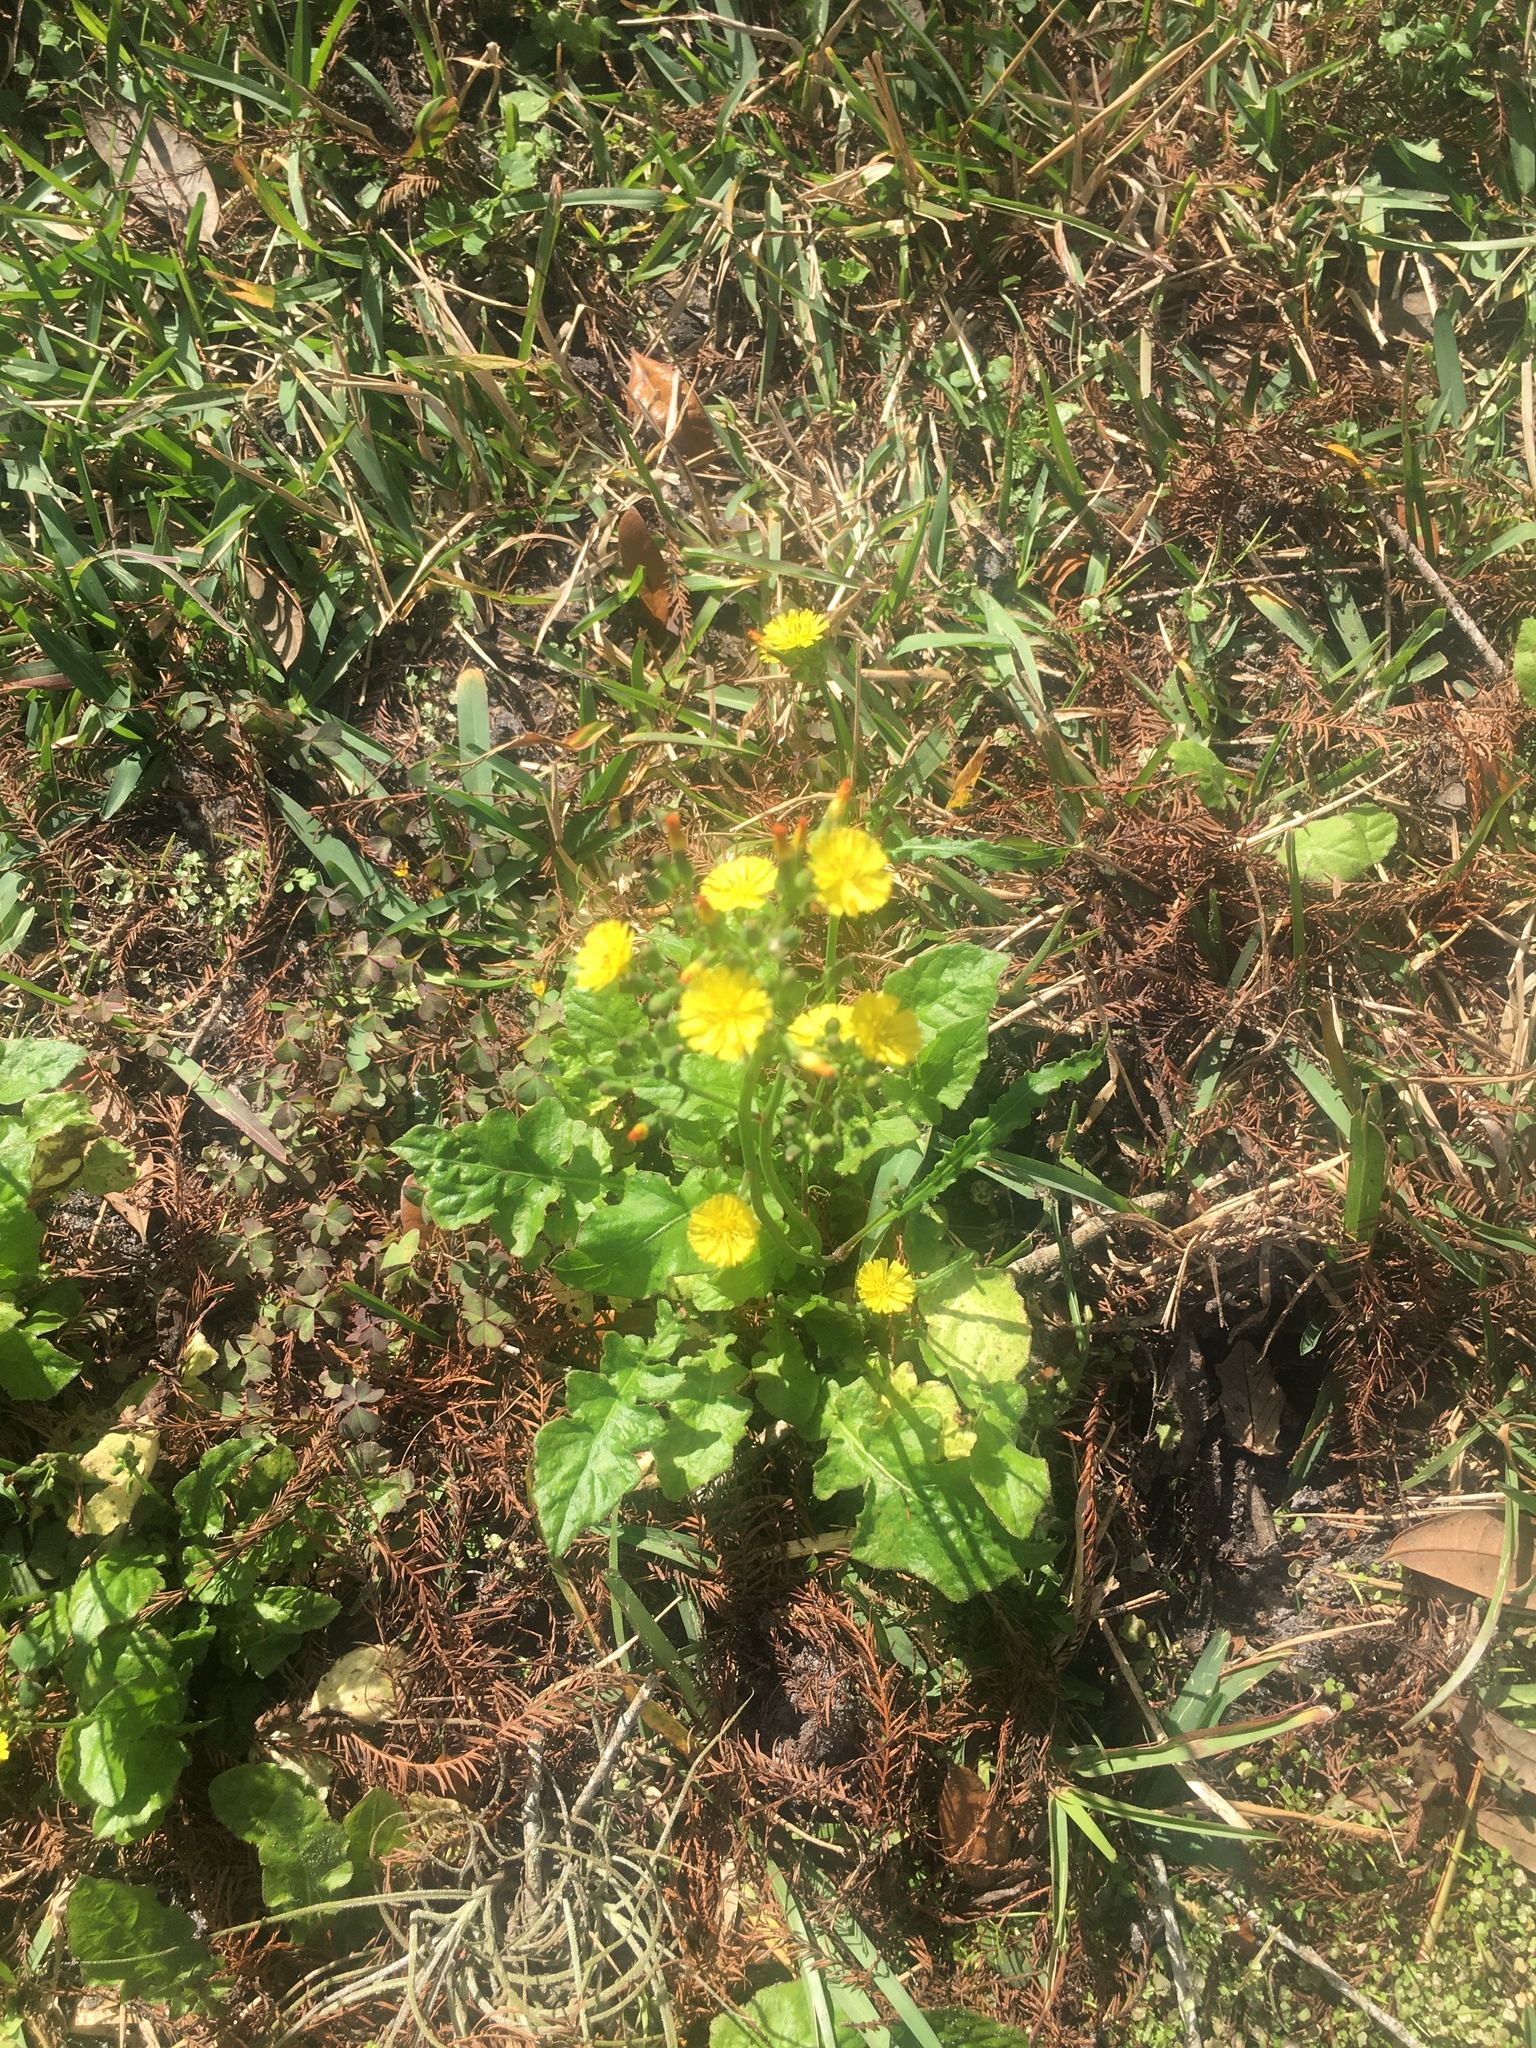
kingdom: Plantae
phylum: Tracheophyta
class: Magnoliopsida
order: Asterales
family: Asteraceae
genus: Youngia
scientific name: Youngia japonica
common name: Oriental false hawksbeard
